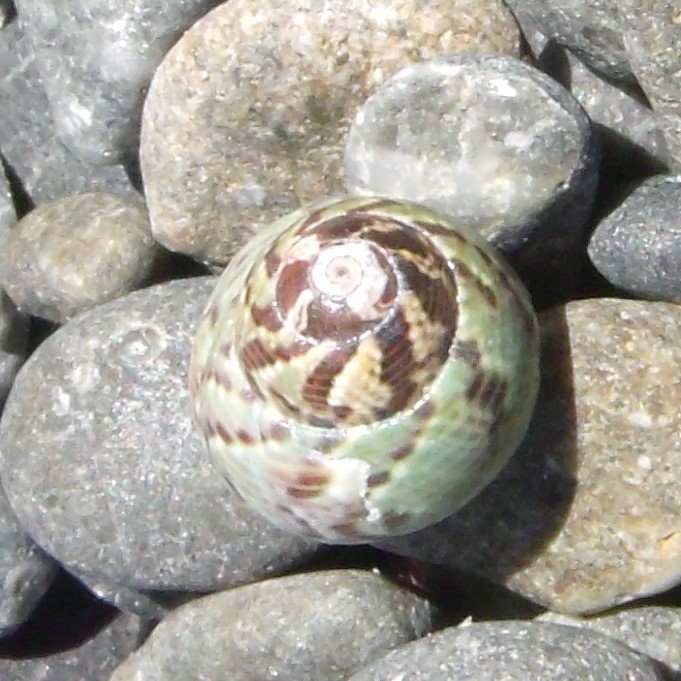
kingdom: Animalia
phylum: Mollusca
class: Gastropoda
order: Trochida
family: Trochidae
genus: Micrelenchus
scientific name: Micrelenchus tessellatus
